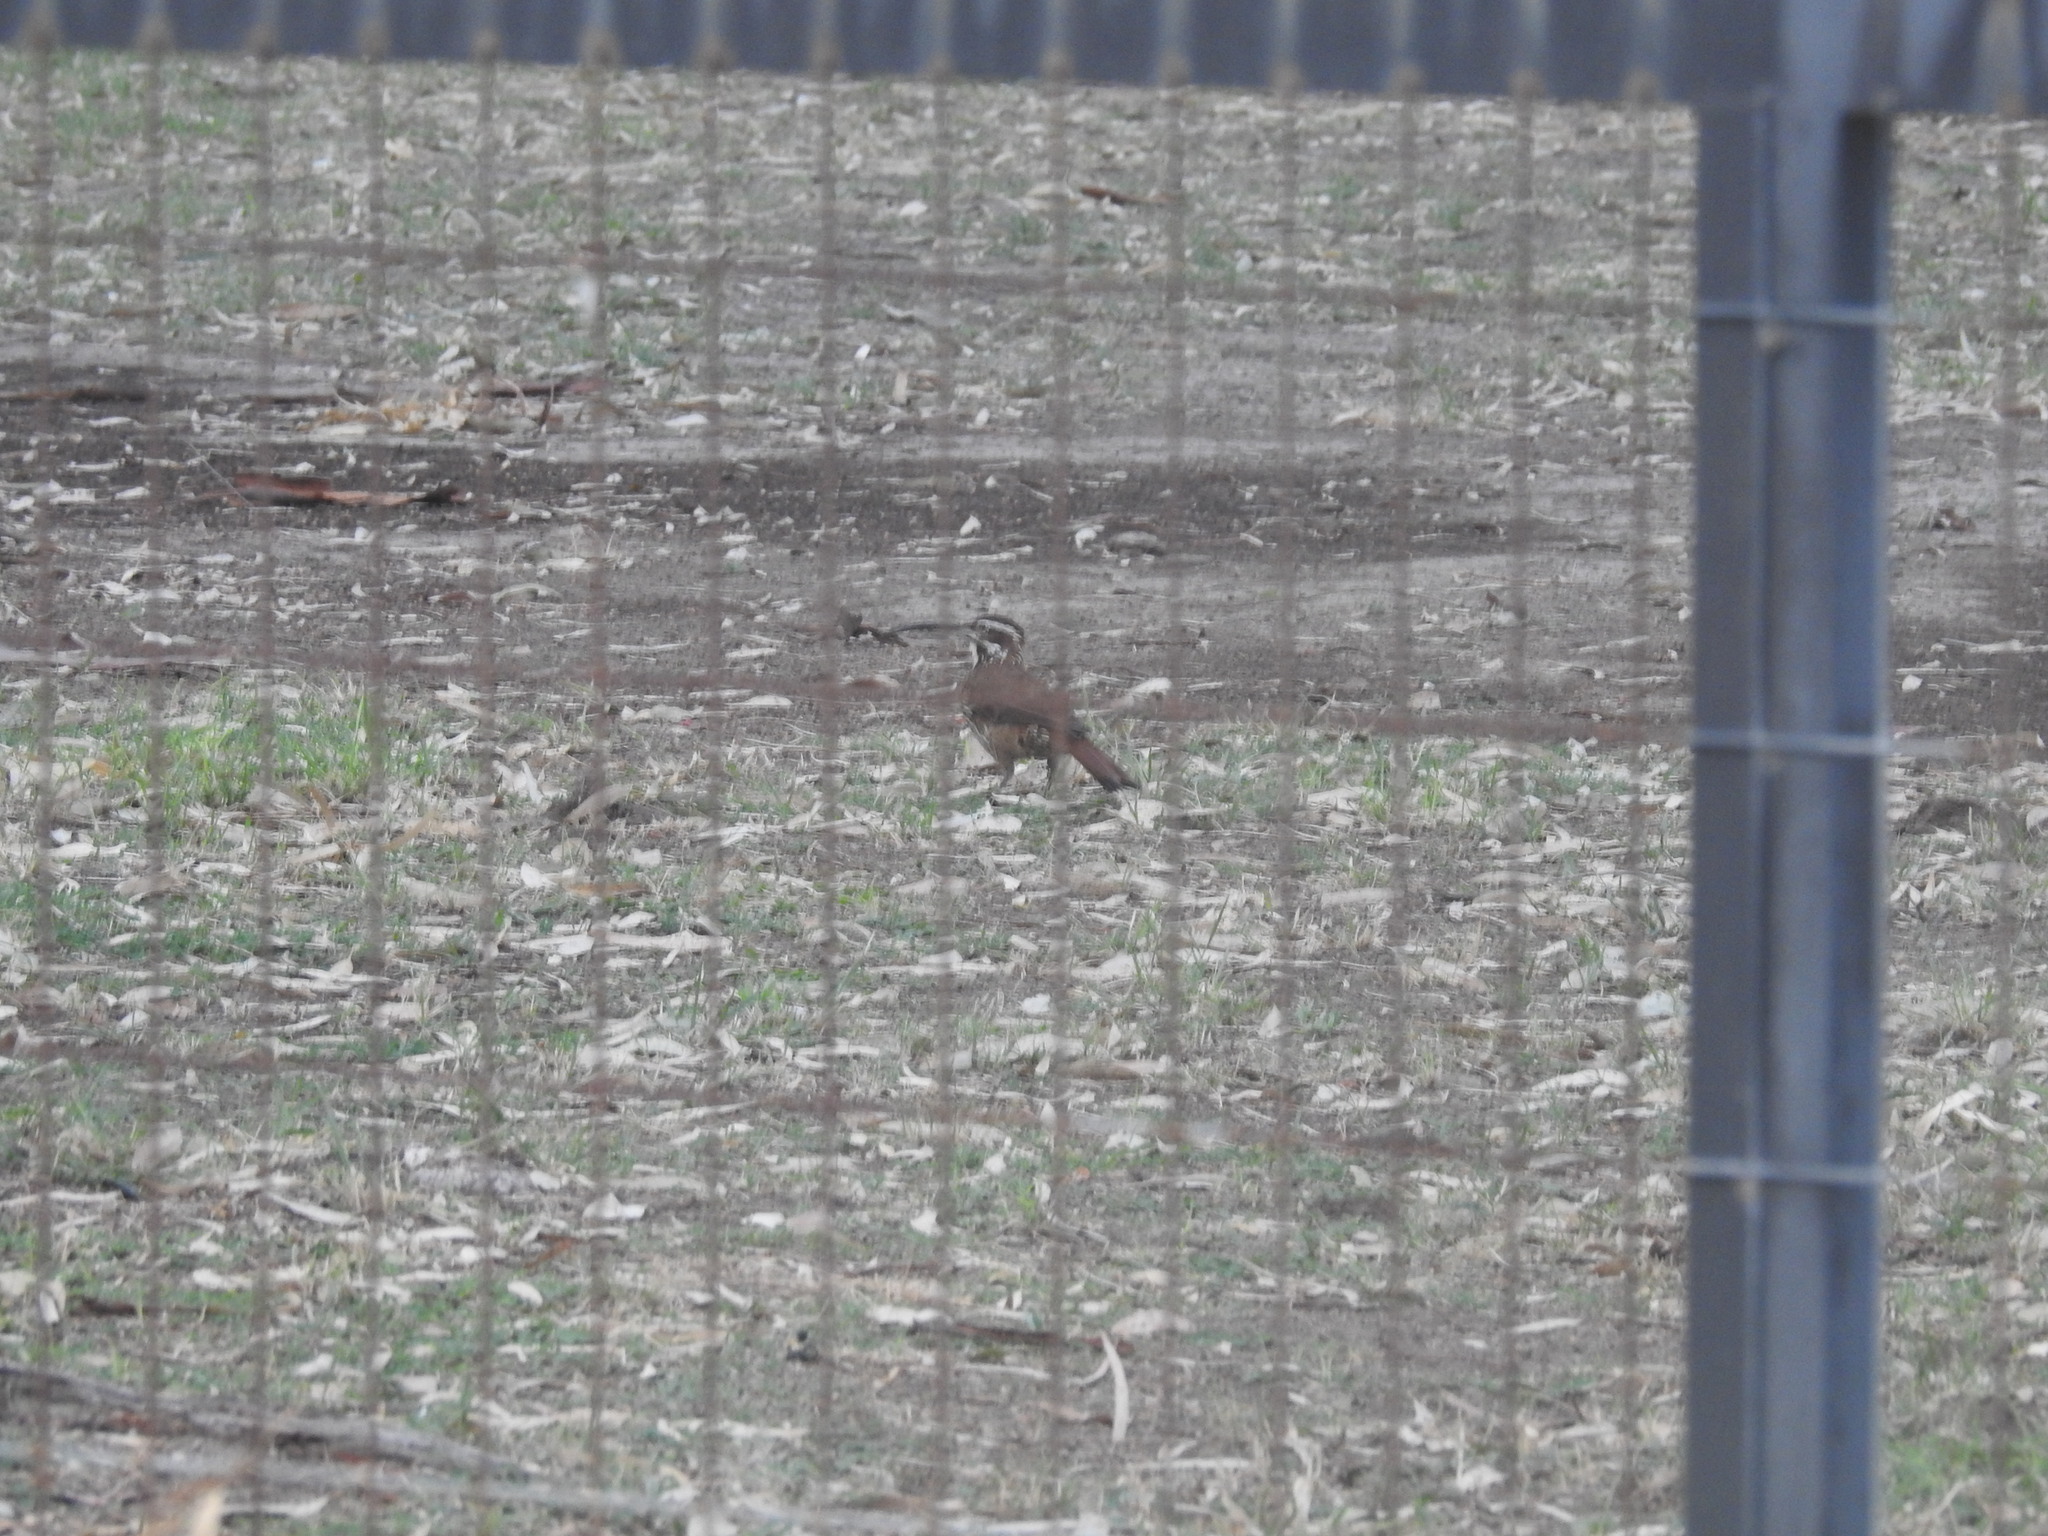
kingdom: Animalia
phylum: Chordata
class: Aves
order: Passeriformes
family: Furnariidae
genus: Drymornis
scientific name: Drymornis bridgesii
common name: Scimitar-billed woodcreeper
